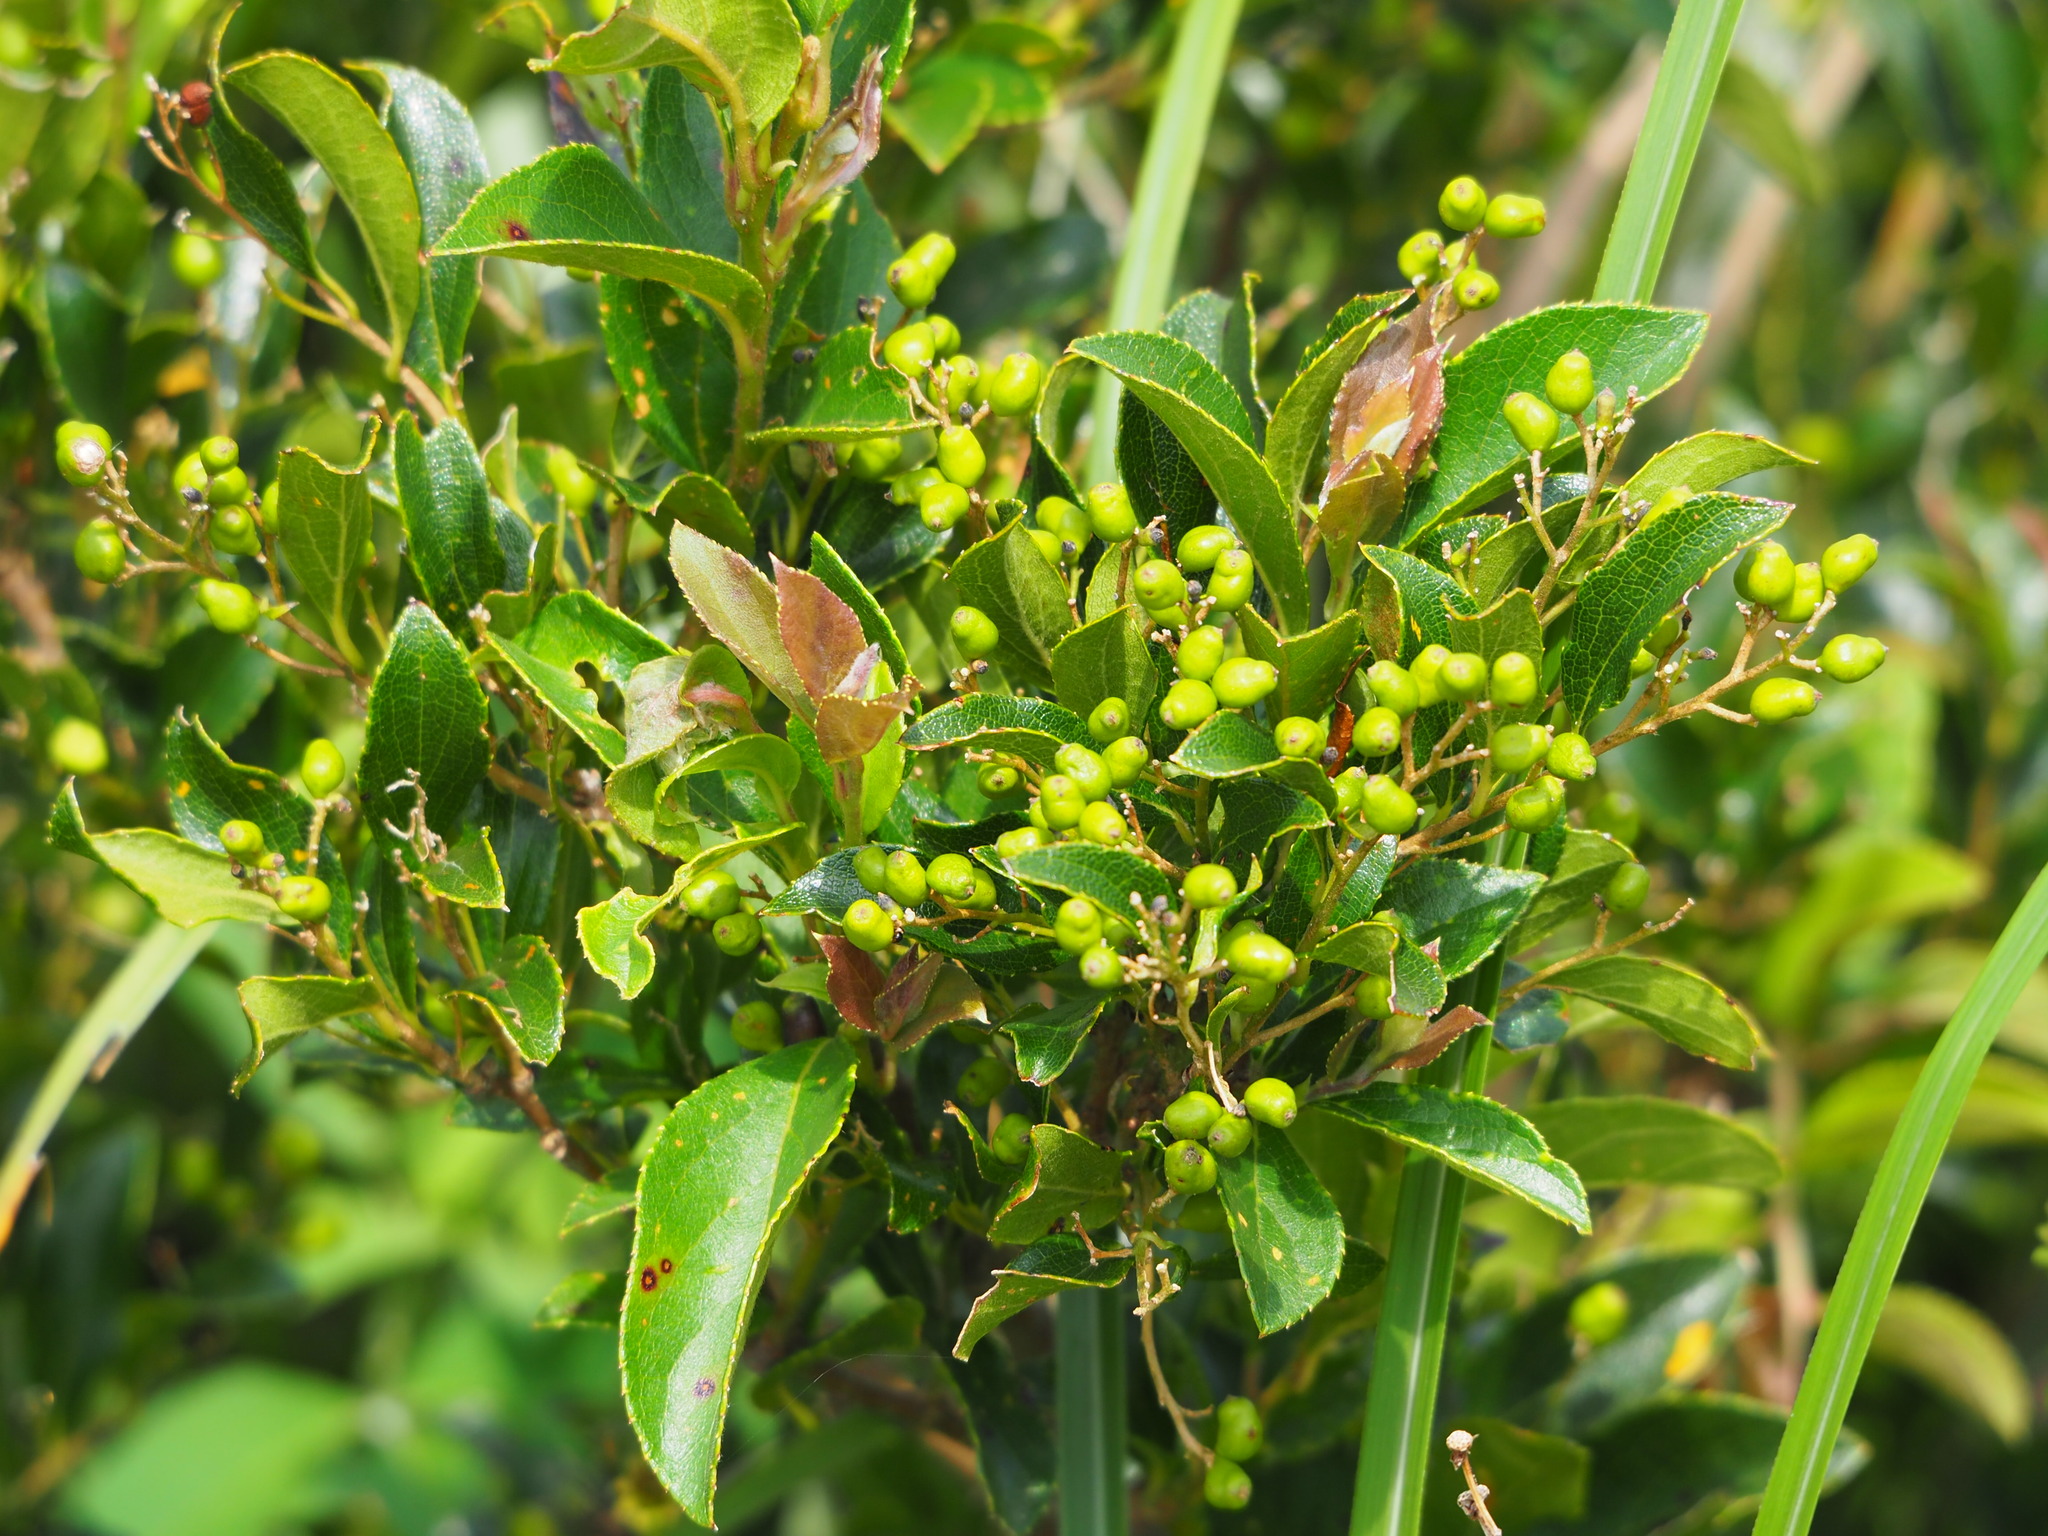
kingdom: Plantae
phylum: Tracheophyta
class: Magnoliopsida
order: Ericales
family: Symplocaceae
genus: Symplocos
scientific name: Symplocos paniculata
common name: Sapphire-berry
